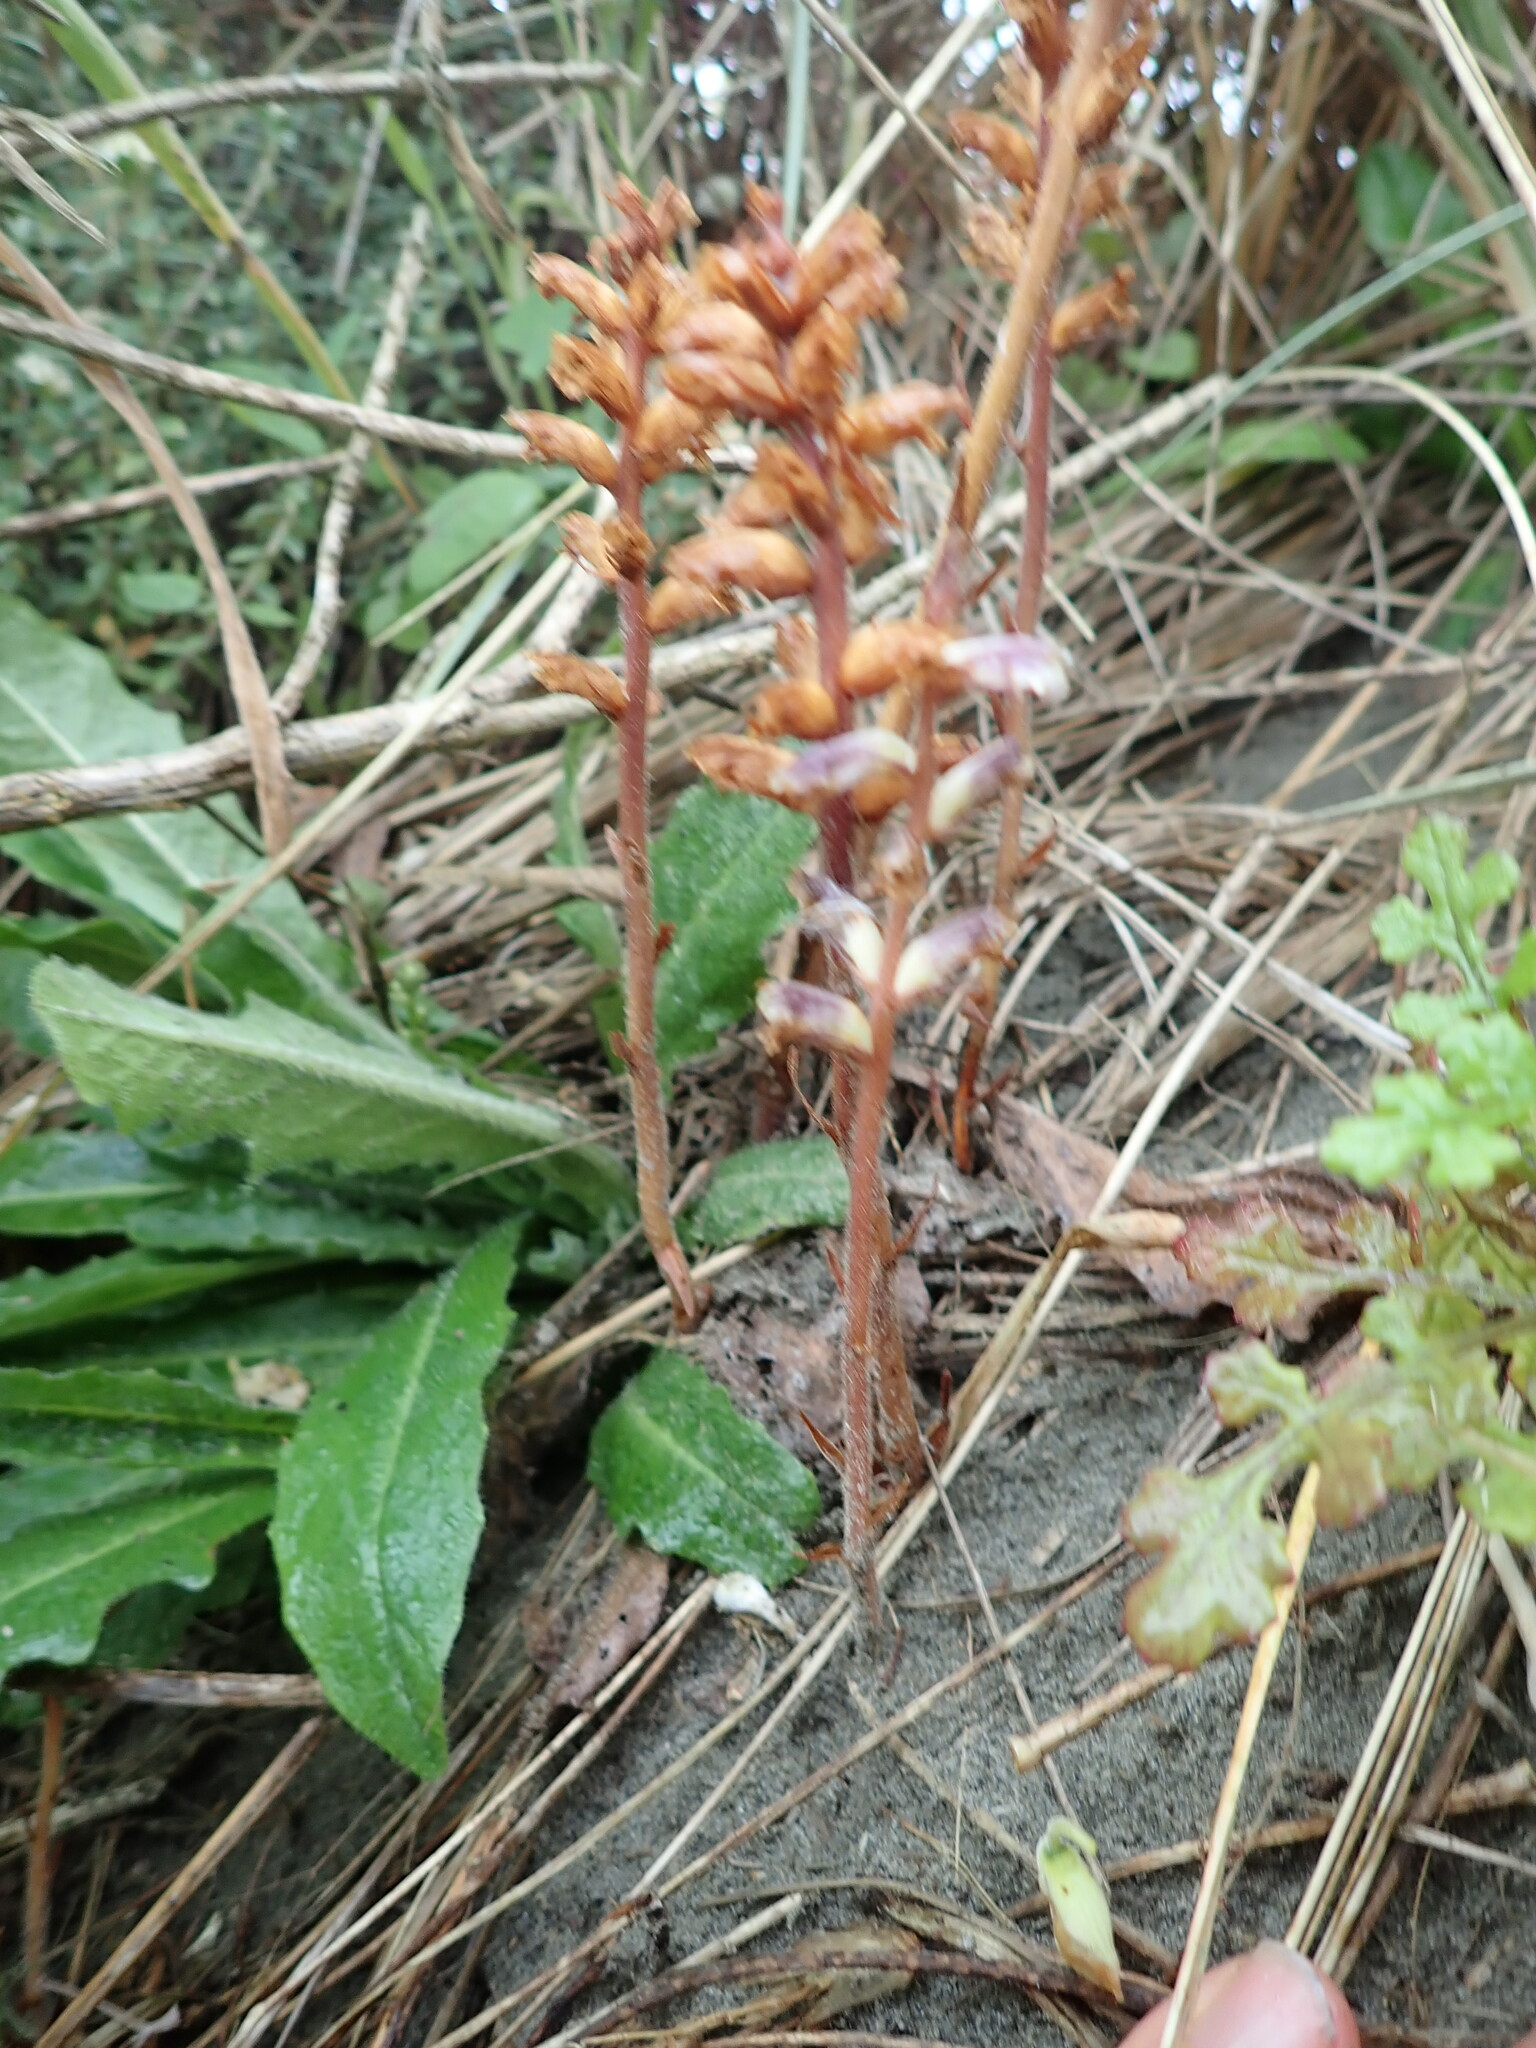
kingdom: Plantae
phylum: Tracheophyta
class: Magnoliopsida
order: Lamiales
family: Orobanchaceae
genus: Orobanche
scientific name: Orobanche minor
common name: Common broomrape
